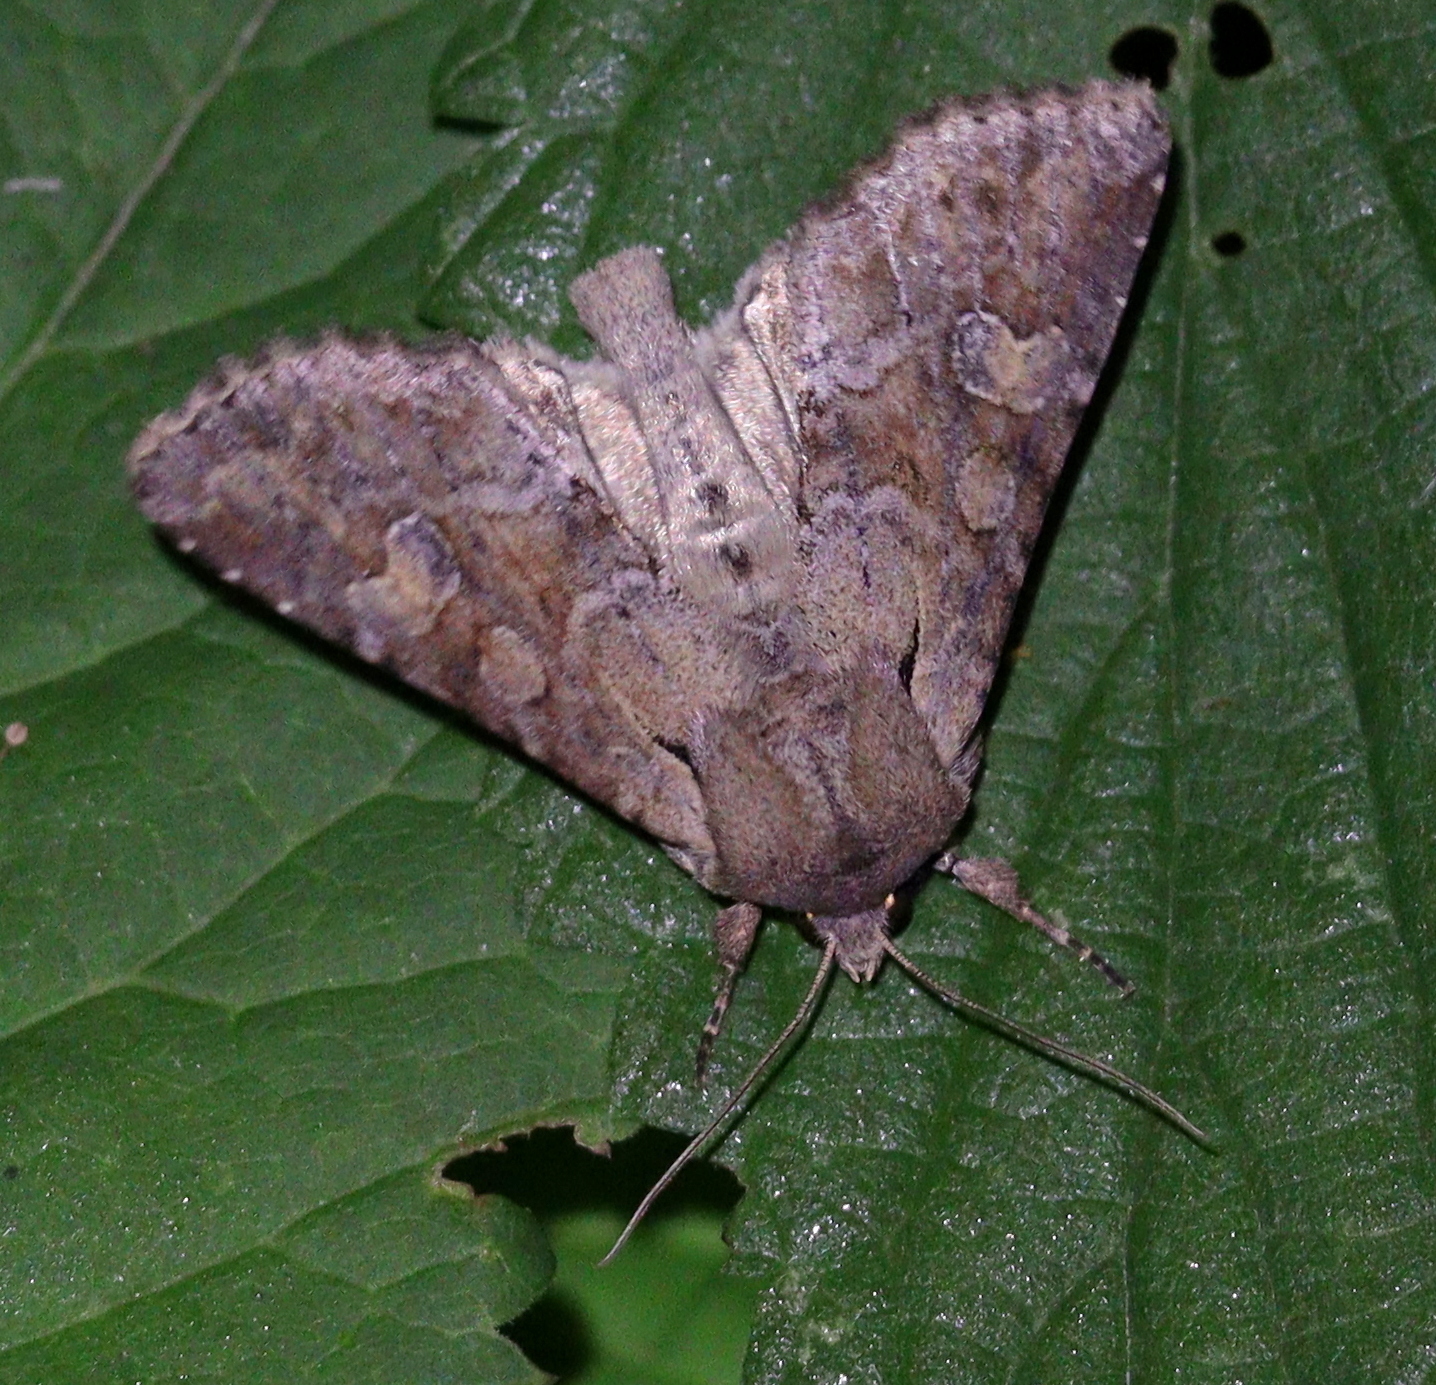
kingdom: Animalia
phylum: Arthropoda
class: Insecta
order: Lepidoptera
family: Noctuidae
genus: Apamea
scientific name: Apamea sordens
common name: Rustic shoulder-knot
